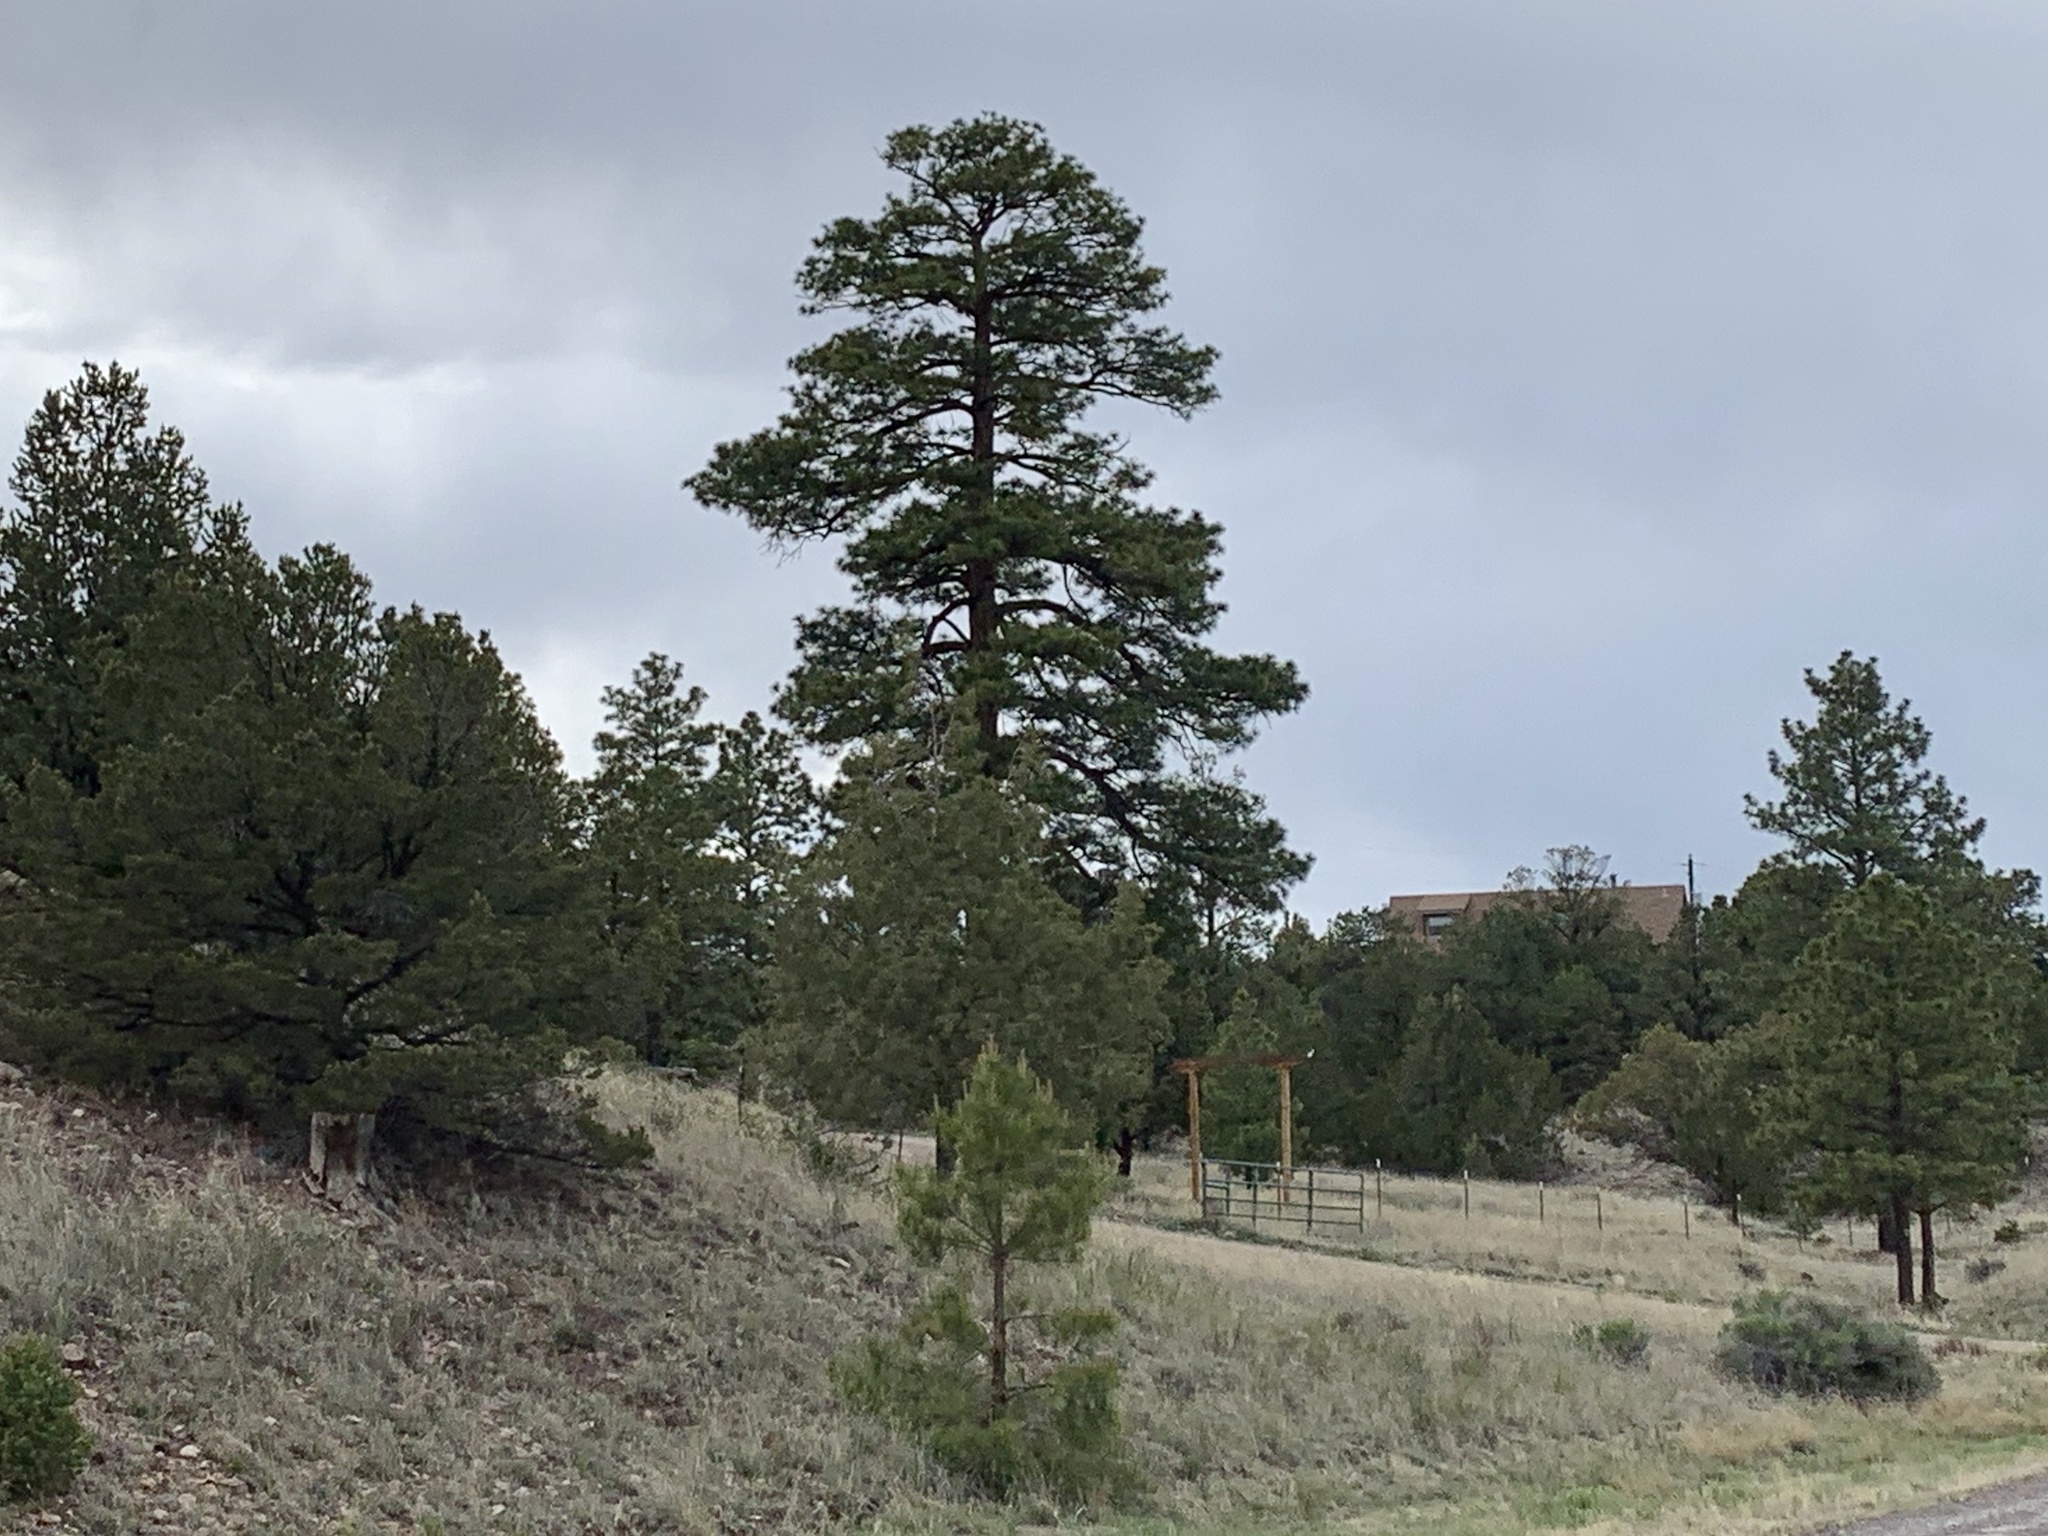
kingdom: Plantae
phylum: Tracheophyta
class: Pinopsida
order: Pinales
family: Pinaceae
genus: Pinus
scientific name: Pinus ponderosa
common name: Western yellow-pine
